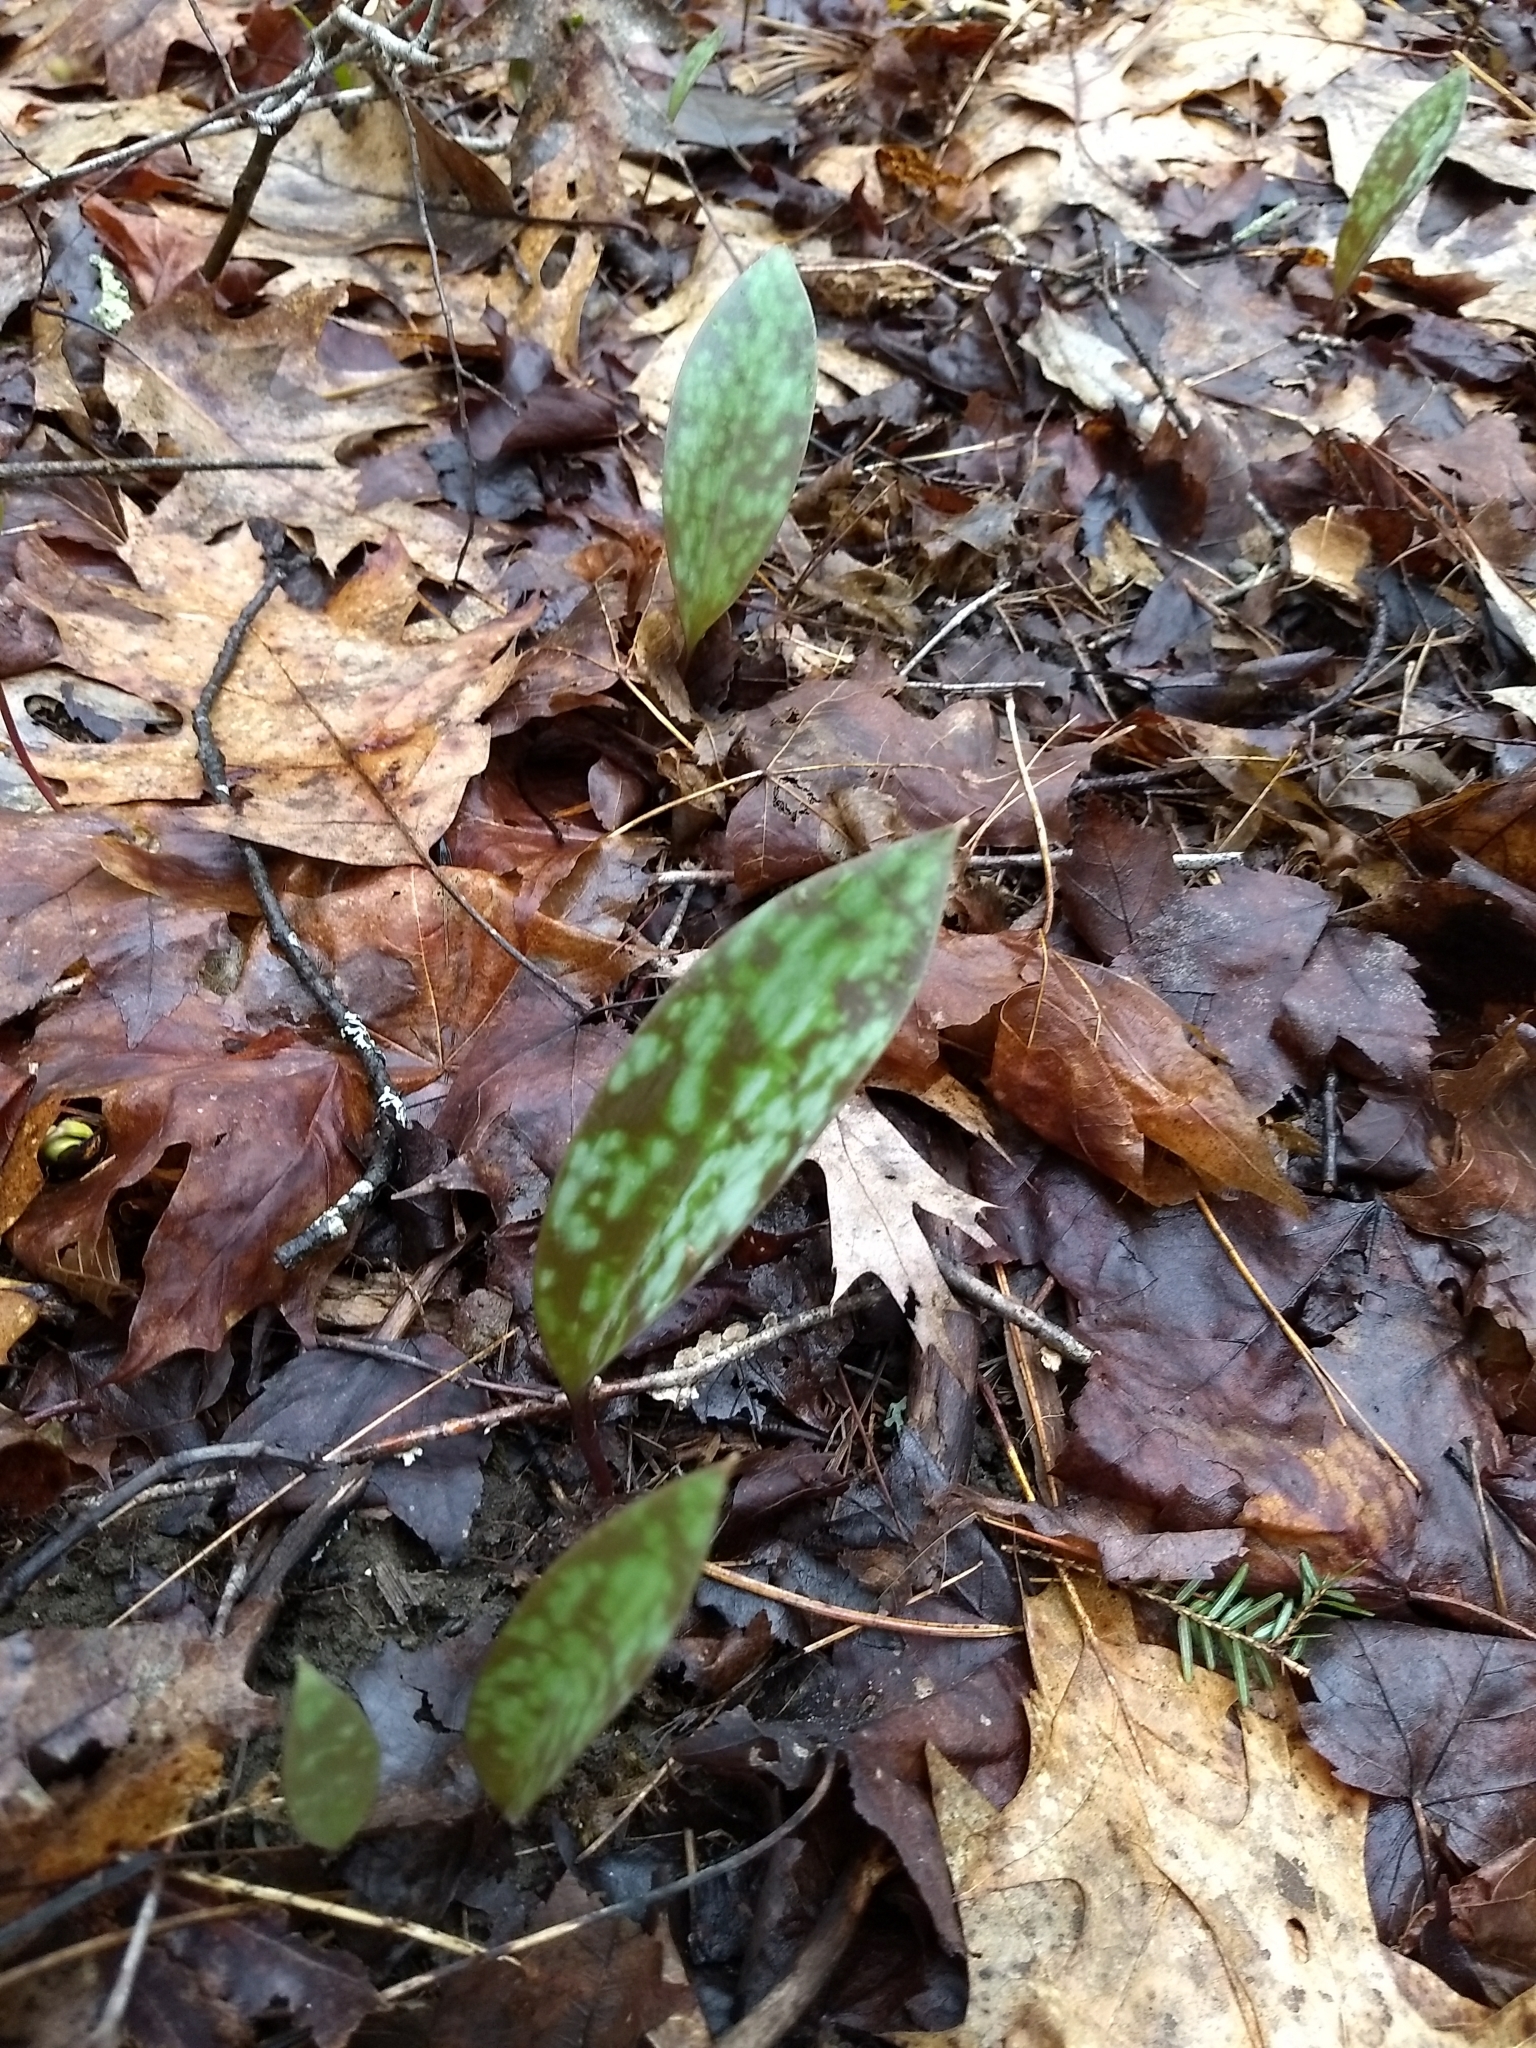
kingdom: Plantae
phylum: Tracheophyta
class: Liliopsida
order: Liliales
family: Liliaceae
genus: Erythronium
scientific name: Erythronium americanum
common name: Yellow adder's-tongue
